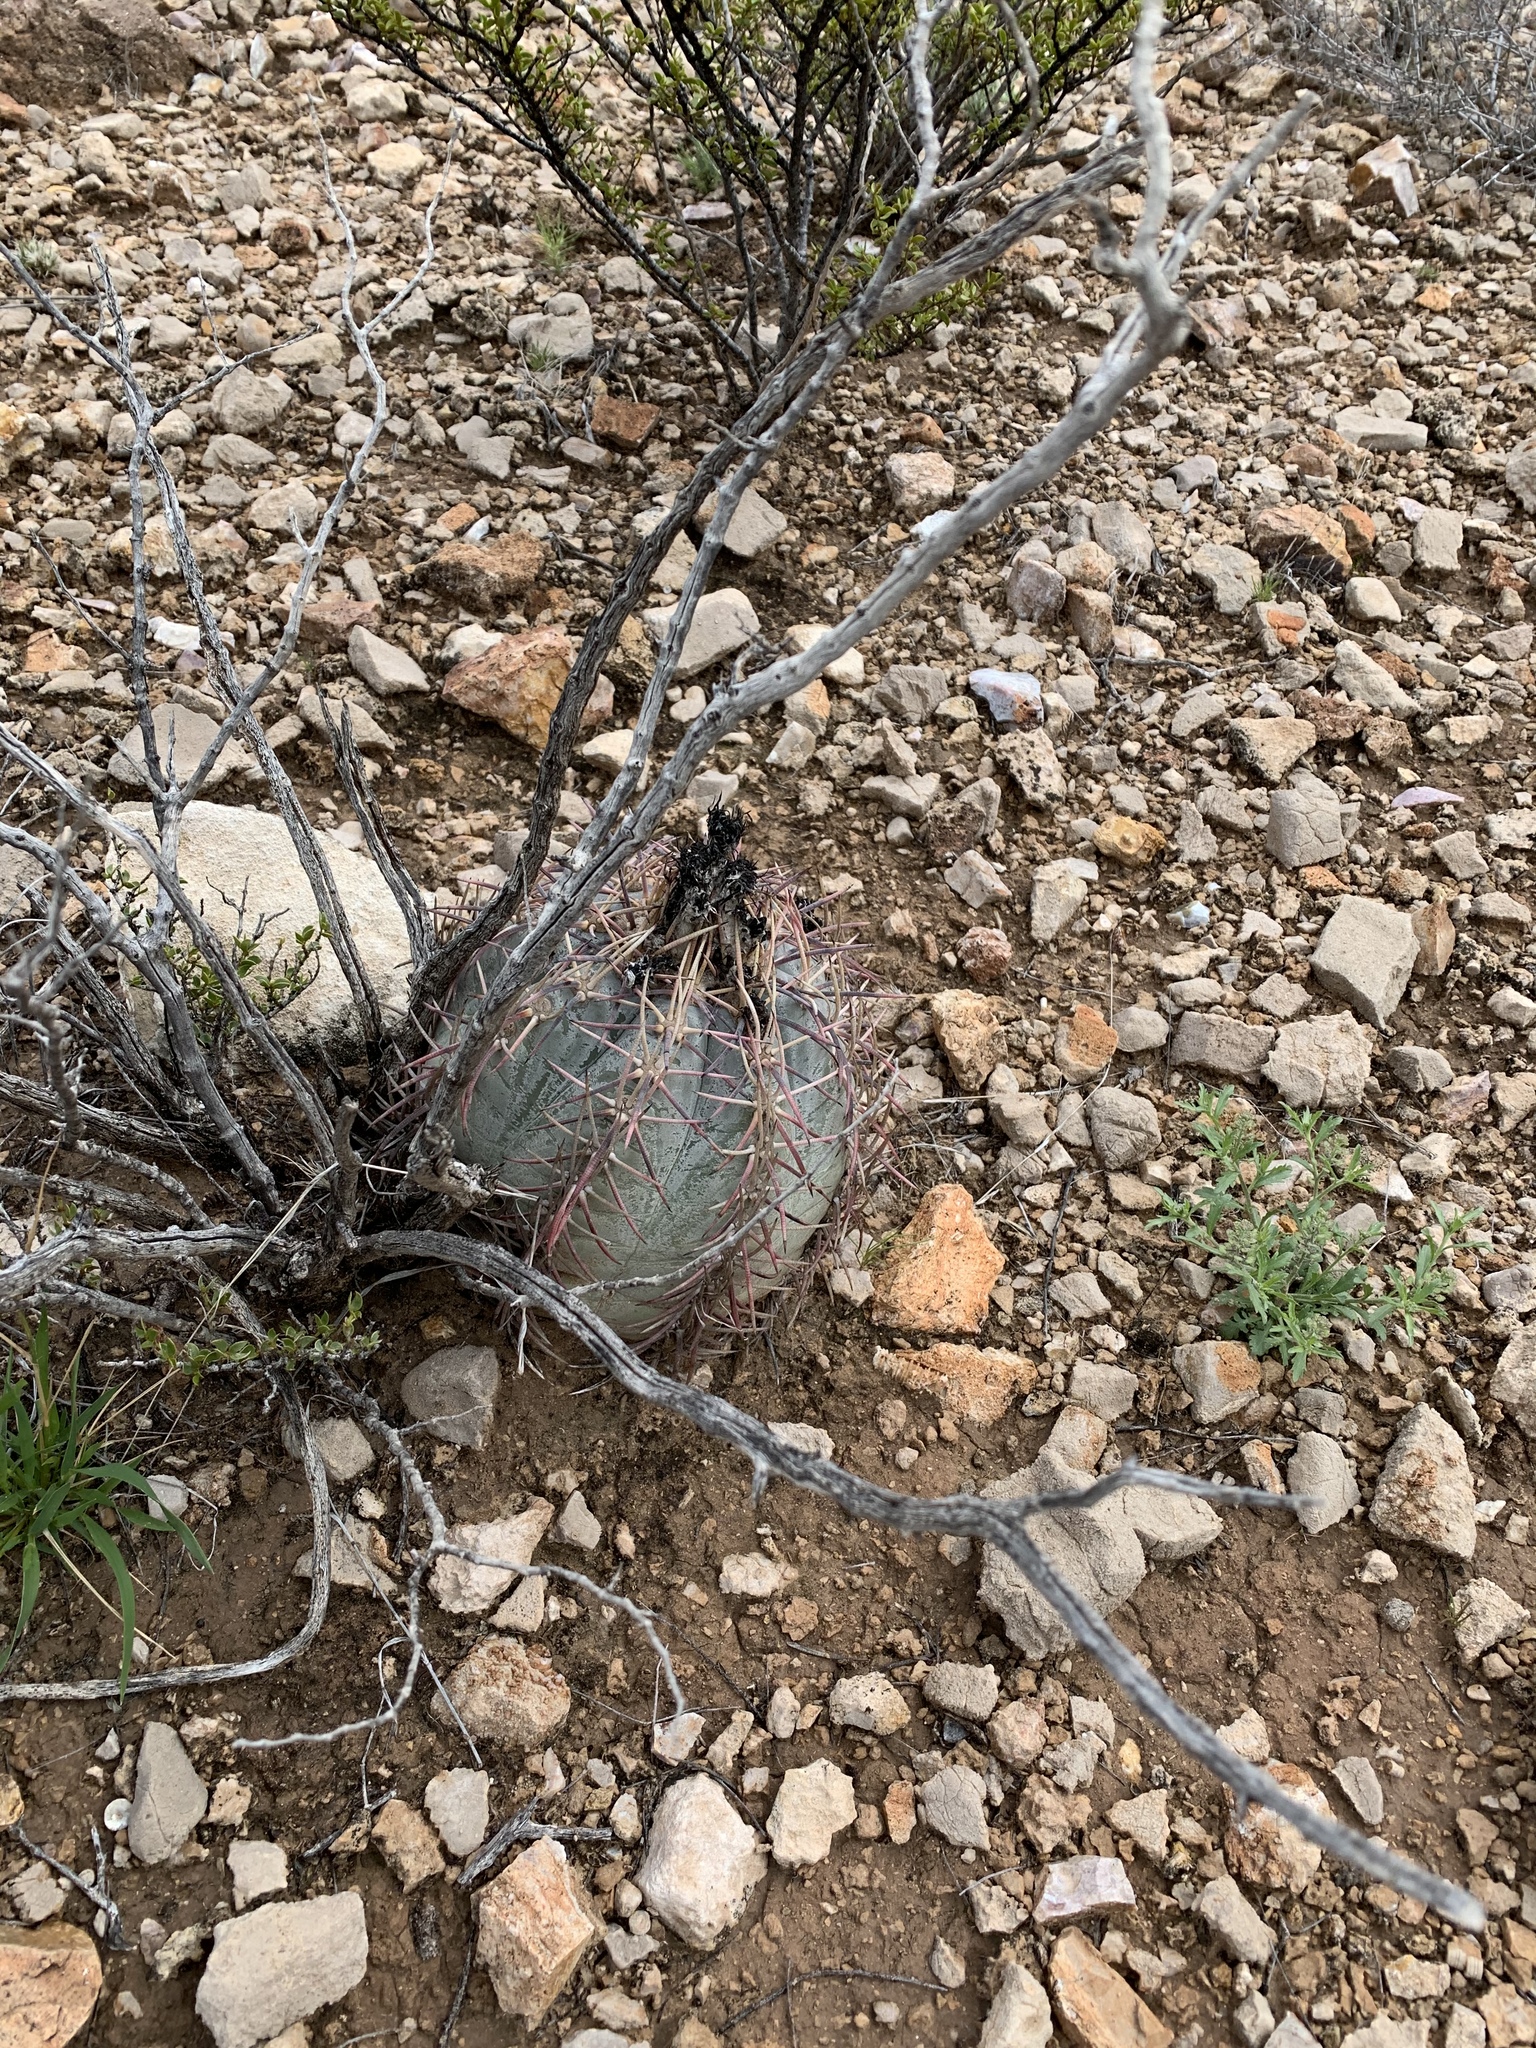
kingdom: Plantae
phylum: Tracheophyta
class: Magnoliopsida
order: Caryophyllales
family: Cactaceae
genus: Echinocactus
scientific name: Echinocactus horizonthalonius
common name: Devilshead
